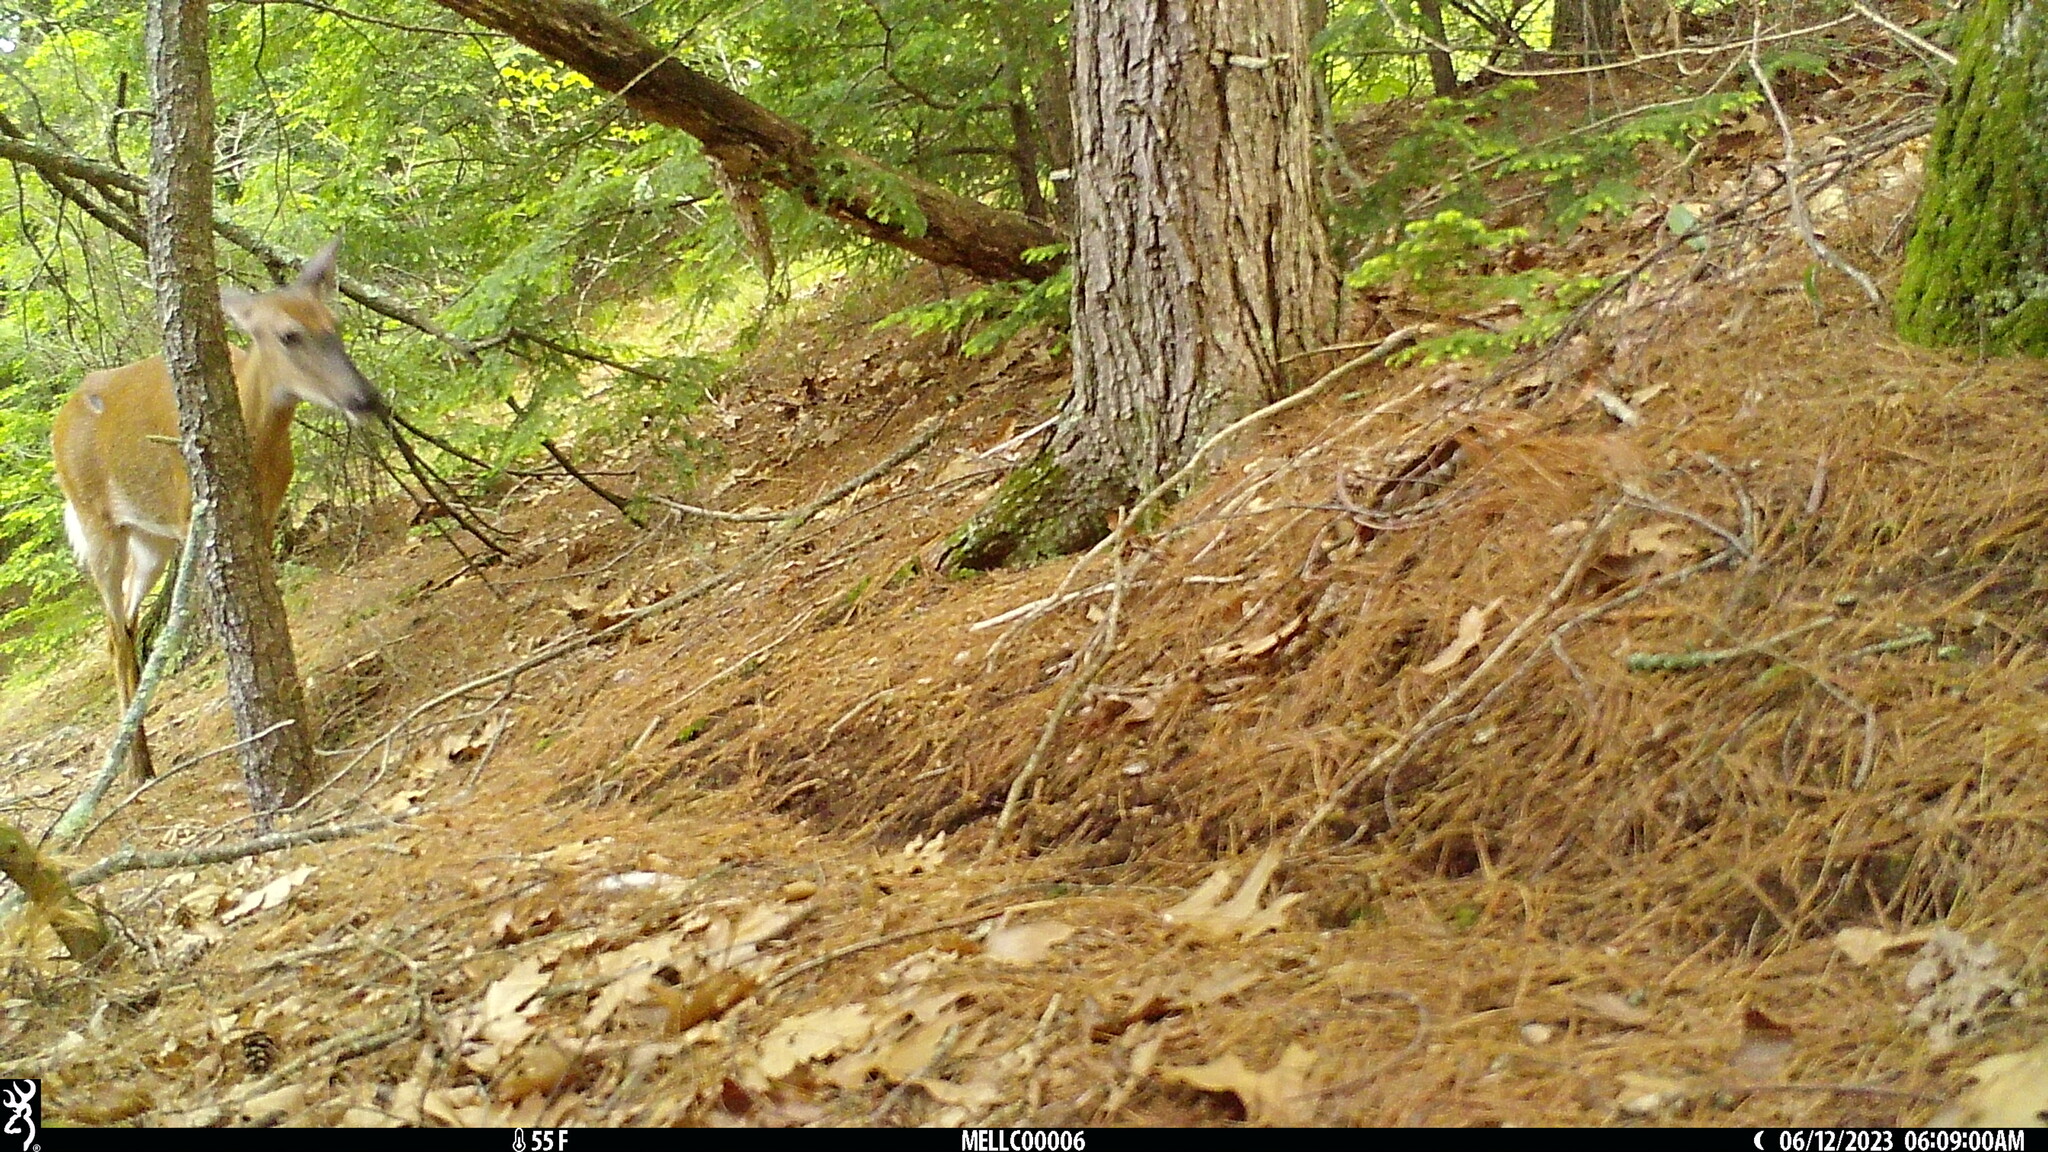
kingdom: Animalia
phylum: Chordata
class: Mammalia
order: Artiodactyla
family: Cervidae
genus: Odocoileus
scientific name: Odocoileus virginianus
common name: White-tailed deer
